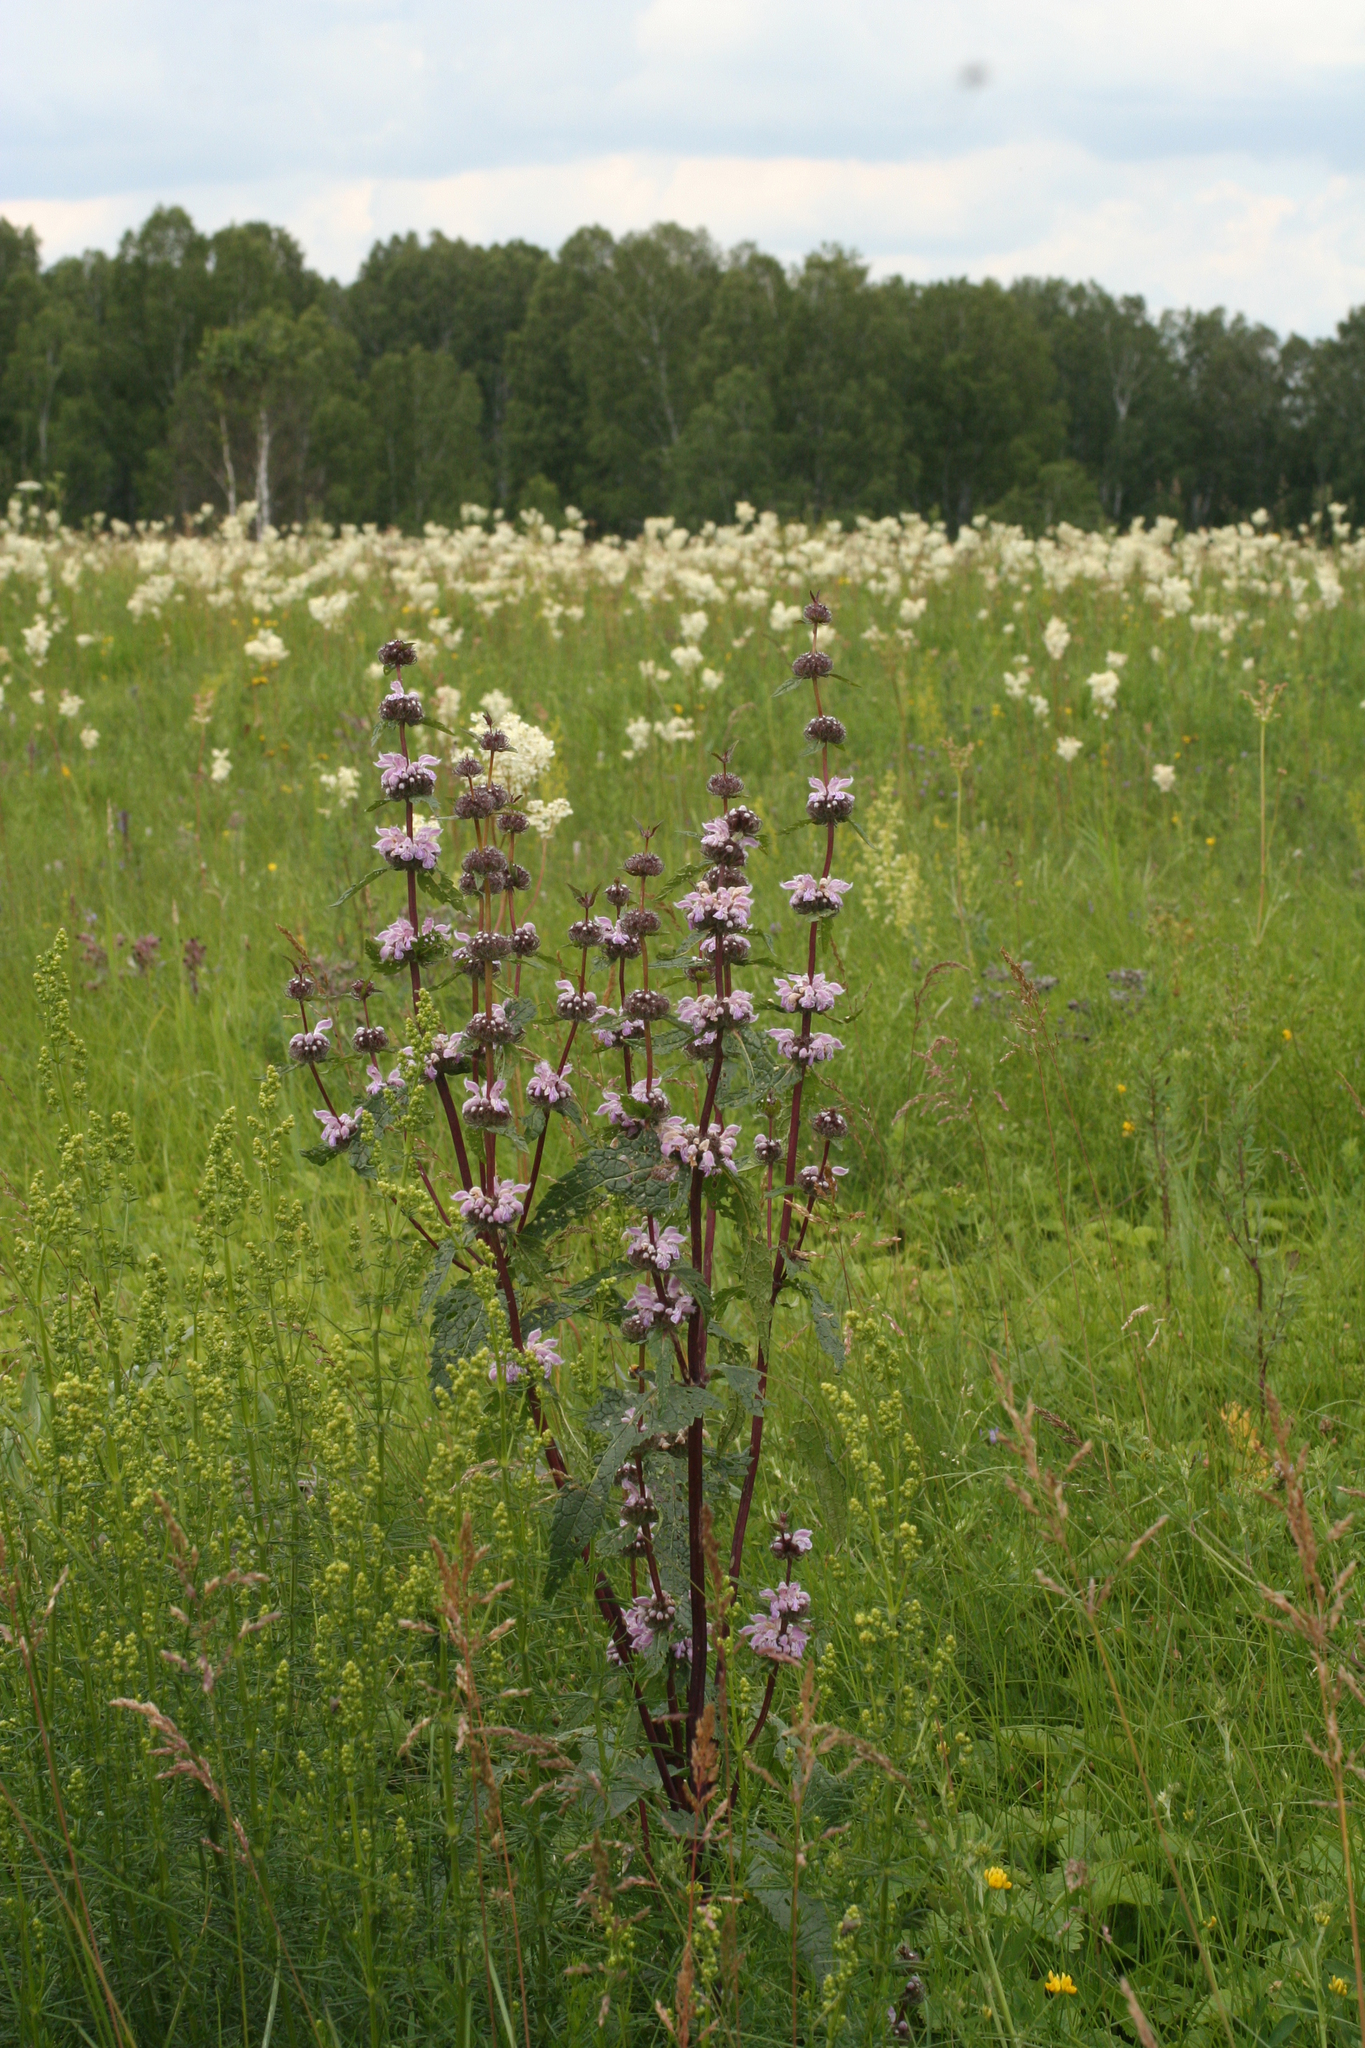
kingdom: Plantae
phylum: Tracheophyta
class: Magnoliopsida
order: Lamiales
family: Lamiaceae
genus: Phlomoides
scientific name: Phlomoides tuberosa
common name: Tuberous jerusalem sage
